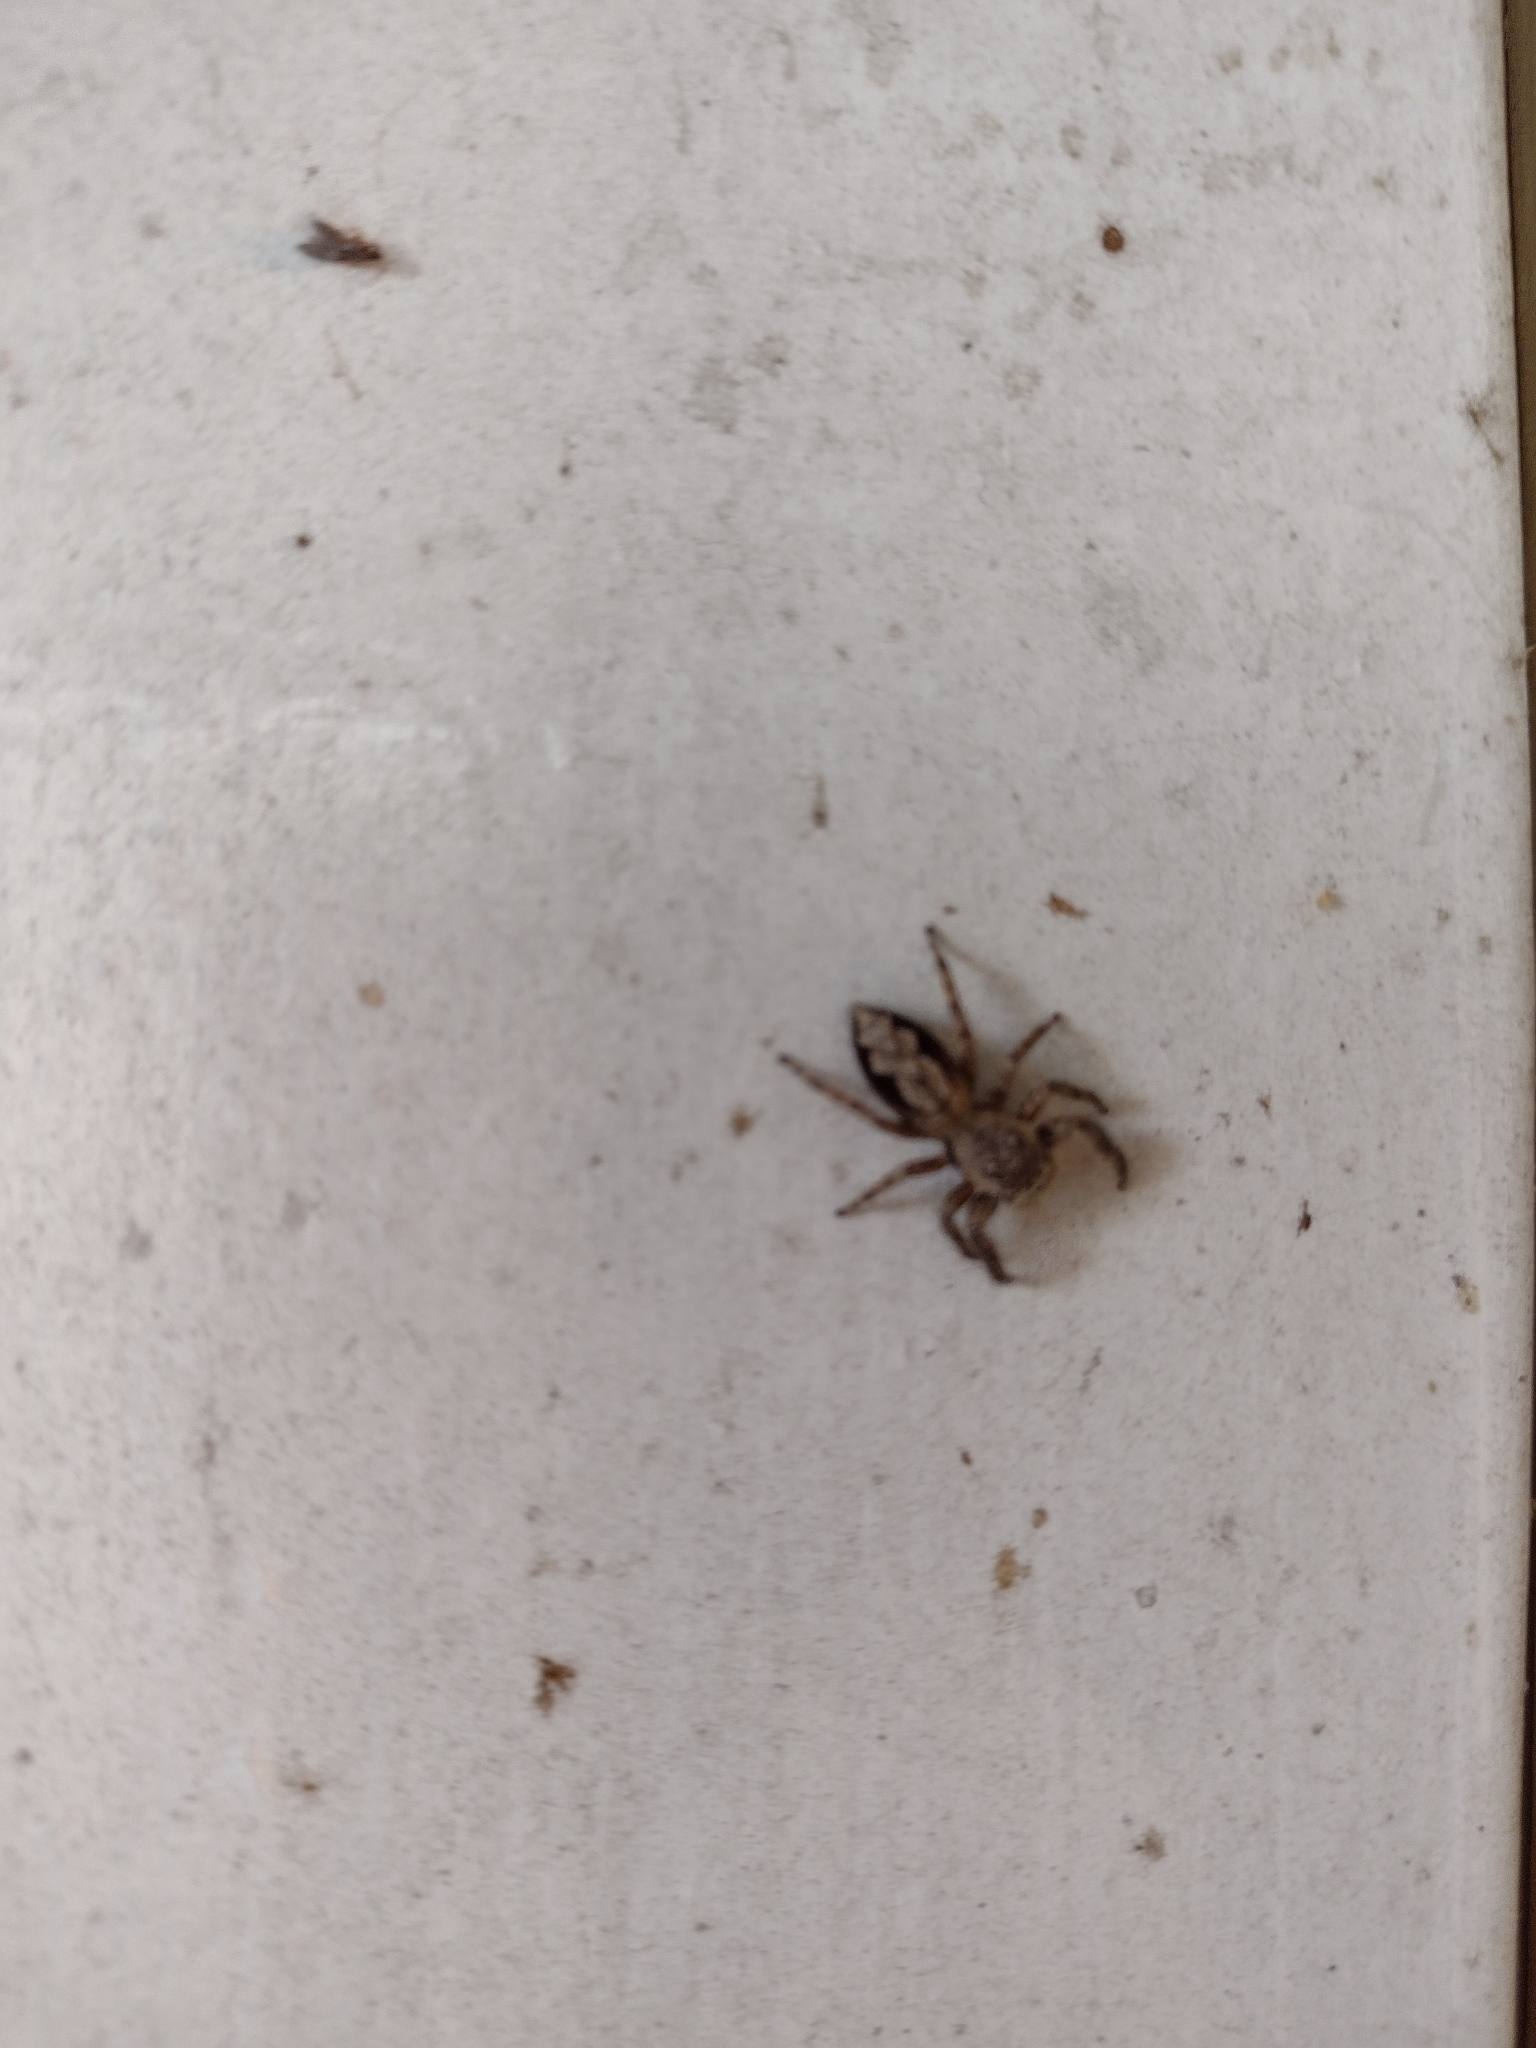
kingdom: Animalia
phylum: Arthropoda
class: Arachnida
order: Araneae
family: Salticidae
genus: Platycryptus
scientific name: Platycryptus undatus
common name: Tan jumping spider
